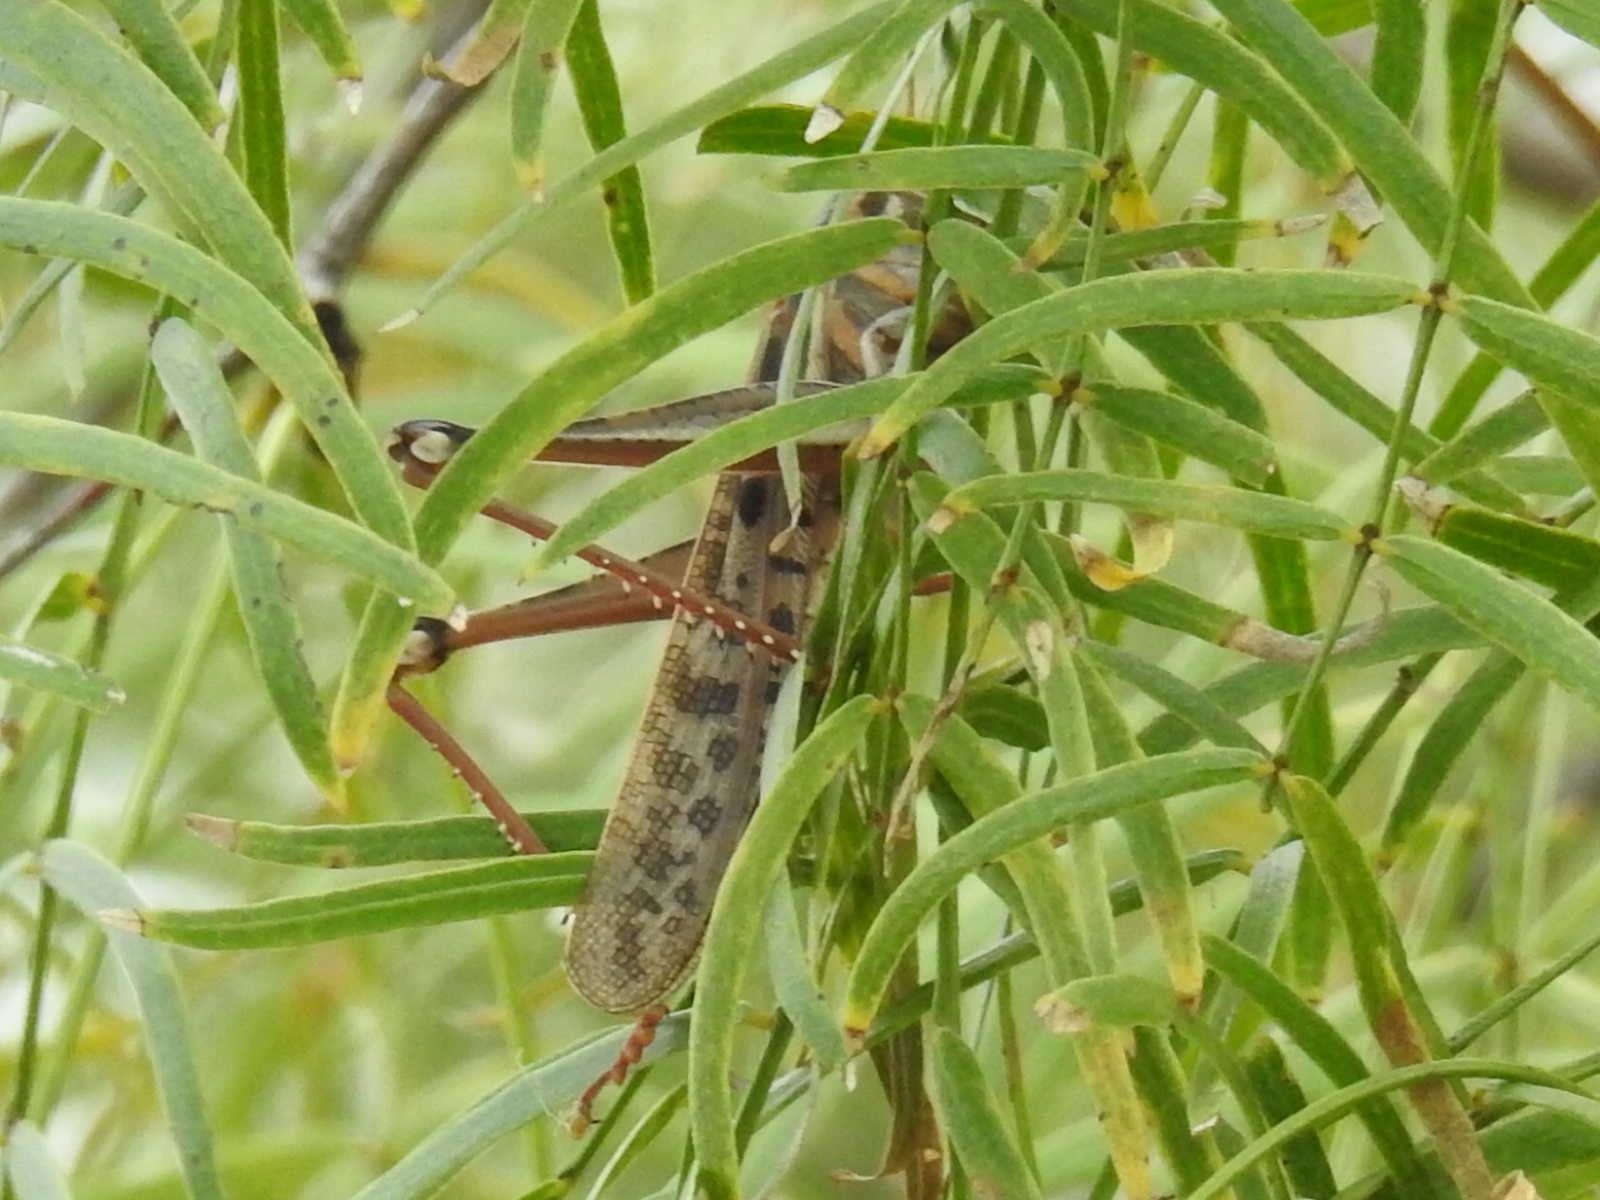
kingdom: Animalia
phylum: Arthropoda
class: Insecta
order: Orthoptera
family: Acrididae
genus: Schistocerca
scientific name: Schistocerca americana
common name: American bird locust
